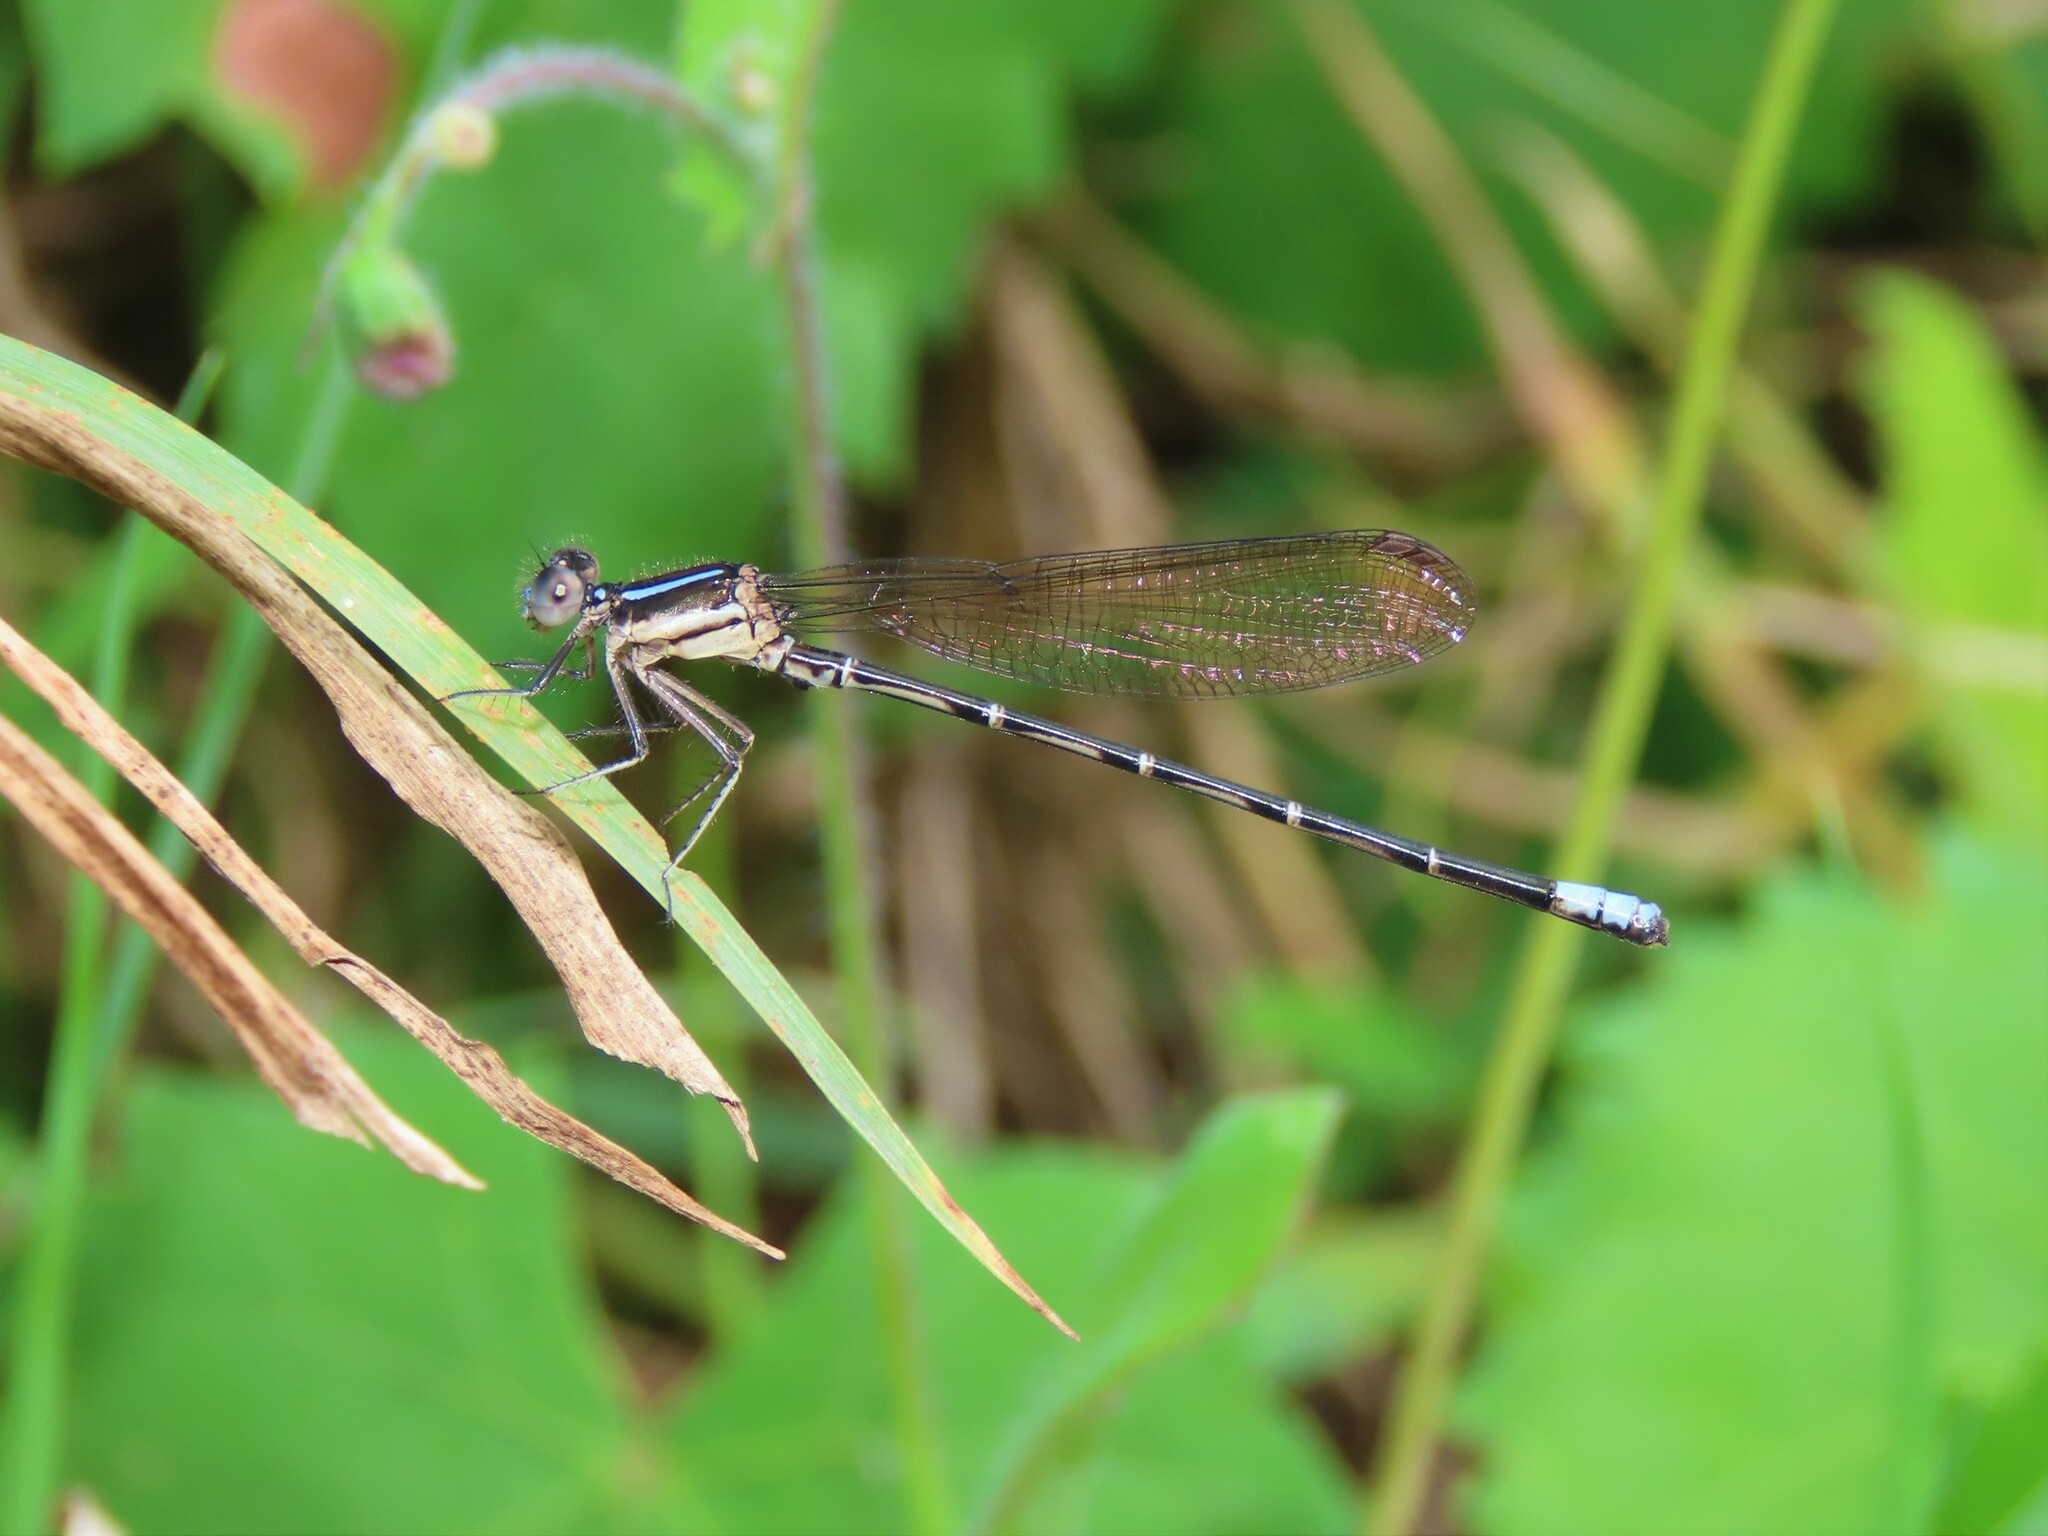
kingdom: Animalia
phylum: Arthropoda
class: Insecta
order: Odonata
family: Coenagrionidae
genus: Argia
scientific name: Argia sedula
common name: Blue-ringed dancer
